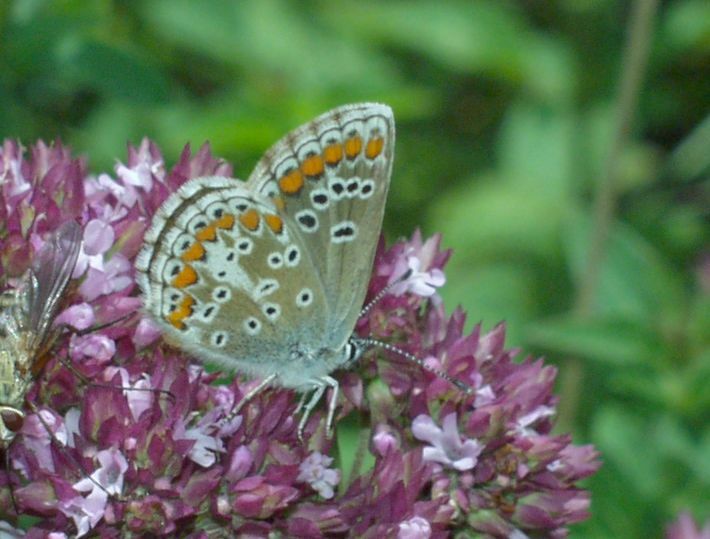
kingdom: Animalia
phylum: Arthropoda
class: Insecta
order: Lepidoptera
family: Lycaenidae
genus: Aricia
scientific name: Aricia agestis
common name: Brown argus
